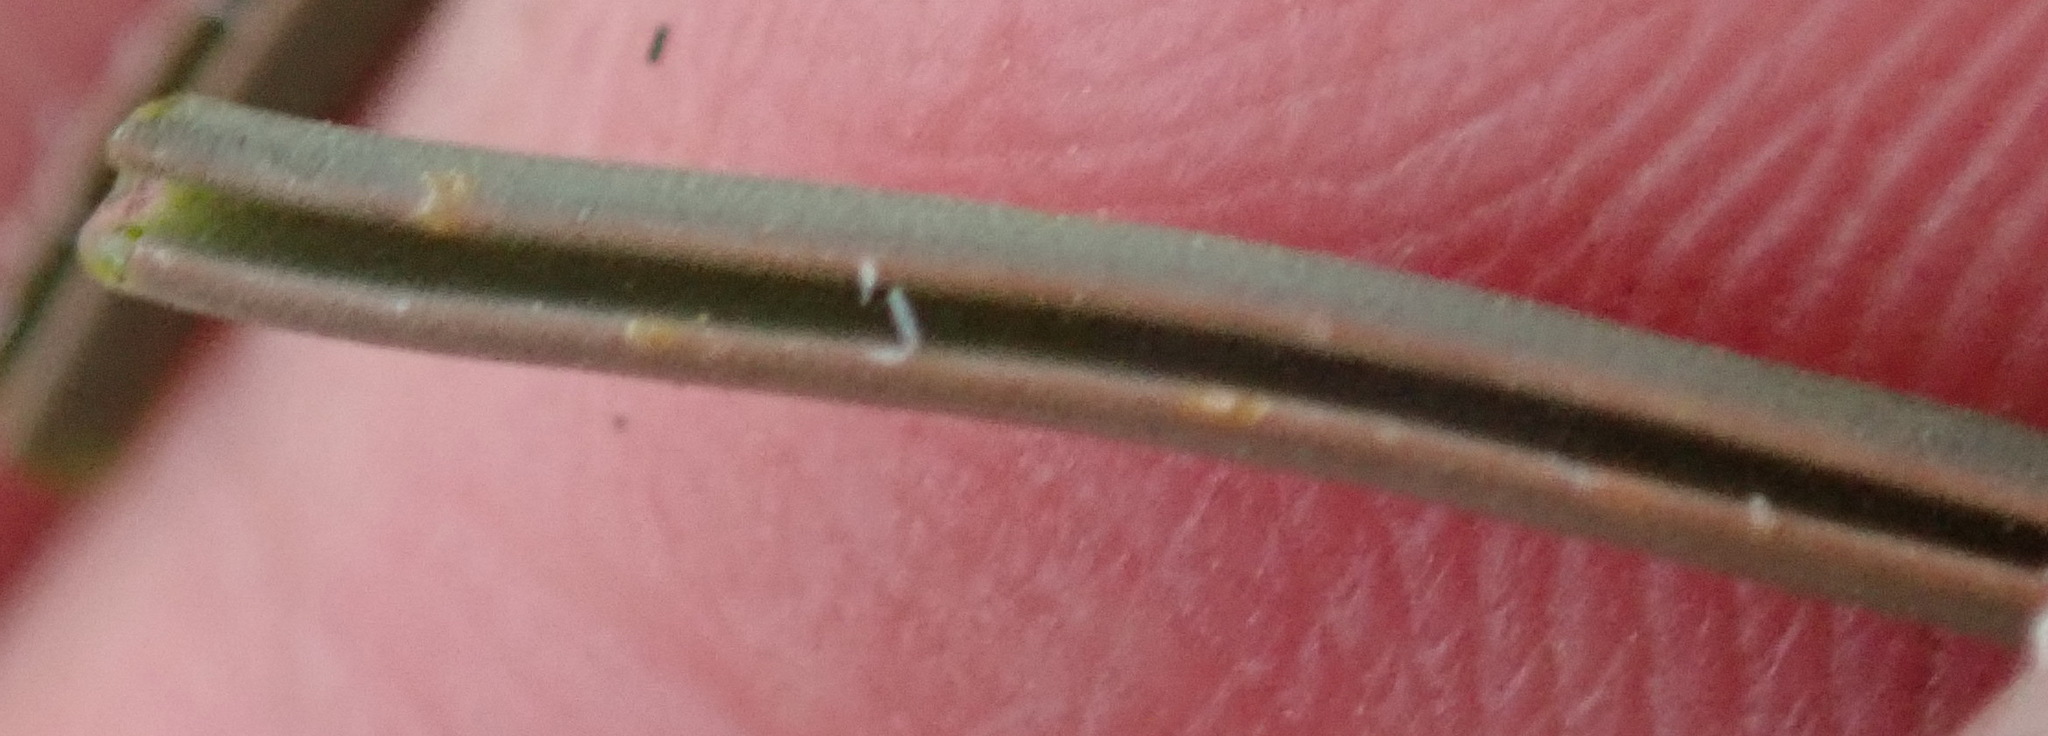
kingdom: Plantae
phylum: Tracheophyta
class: Liliopsida
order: Asparagales
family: Asparagaceae
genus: Dipcadi
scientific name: Dipcadi brevifolium
